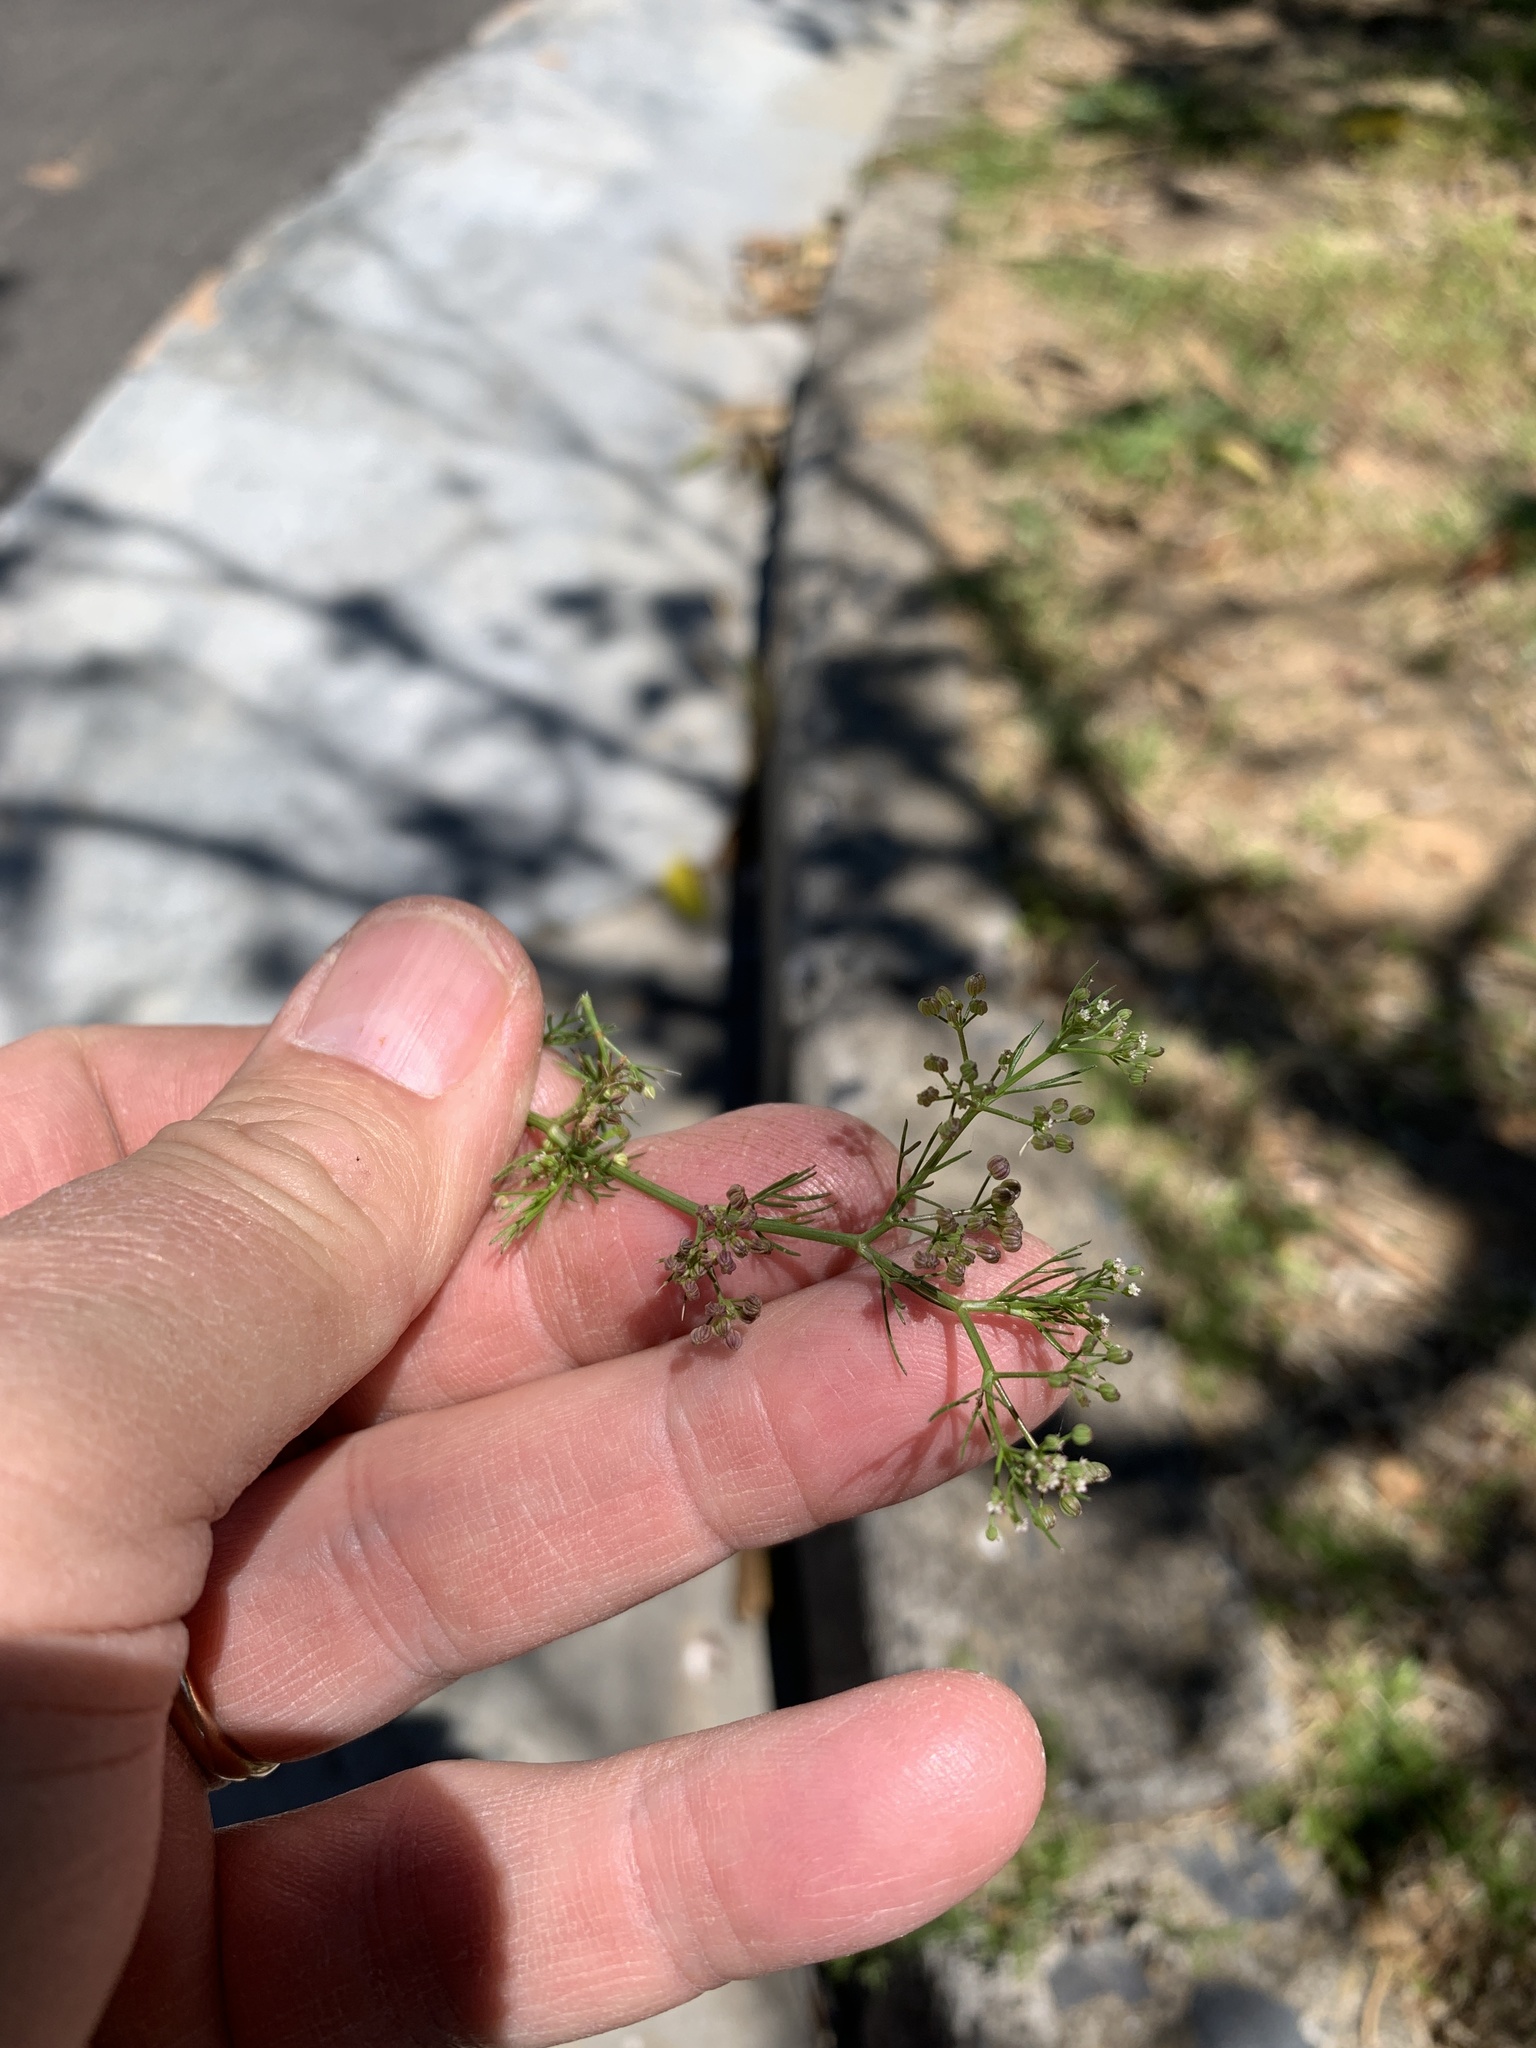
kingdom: Plantae
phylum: Tracheophyta
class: Magnoliopsida
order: Apiales
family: Apiaceae
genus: Cyclospermum
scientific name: Cyclospermum leptophyllum
